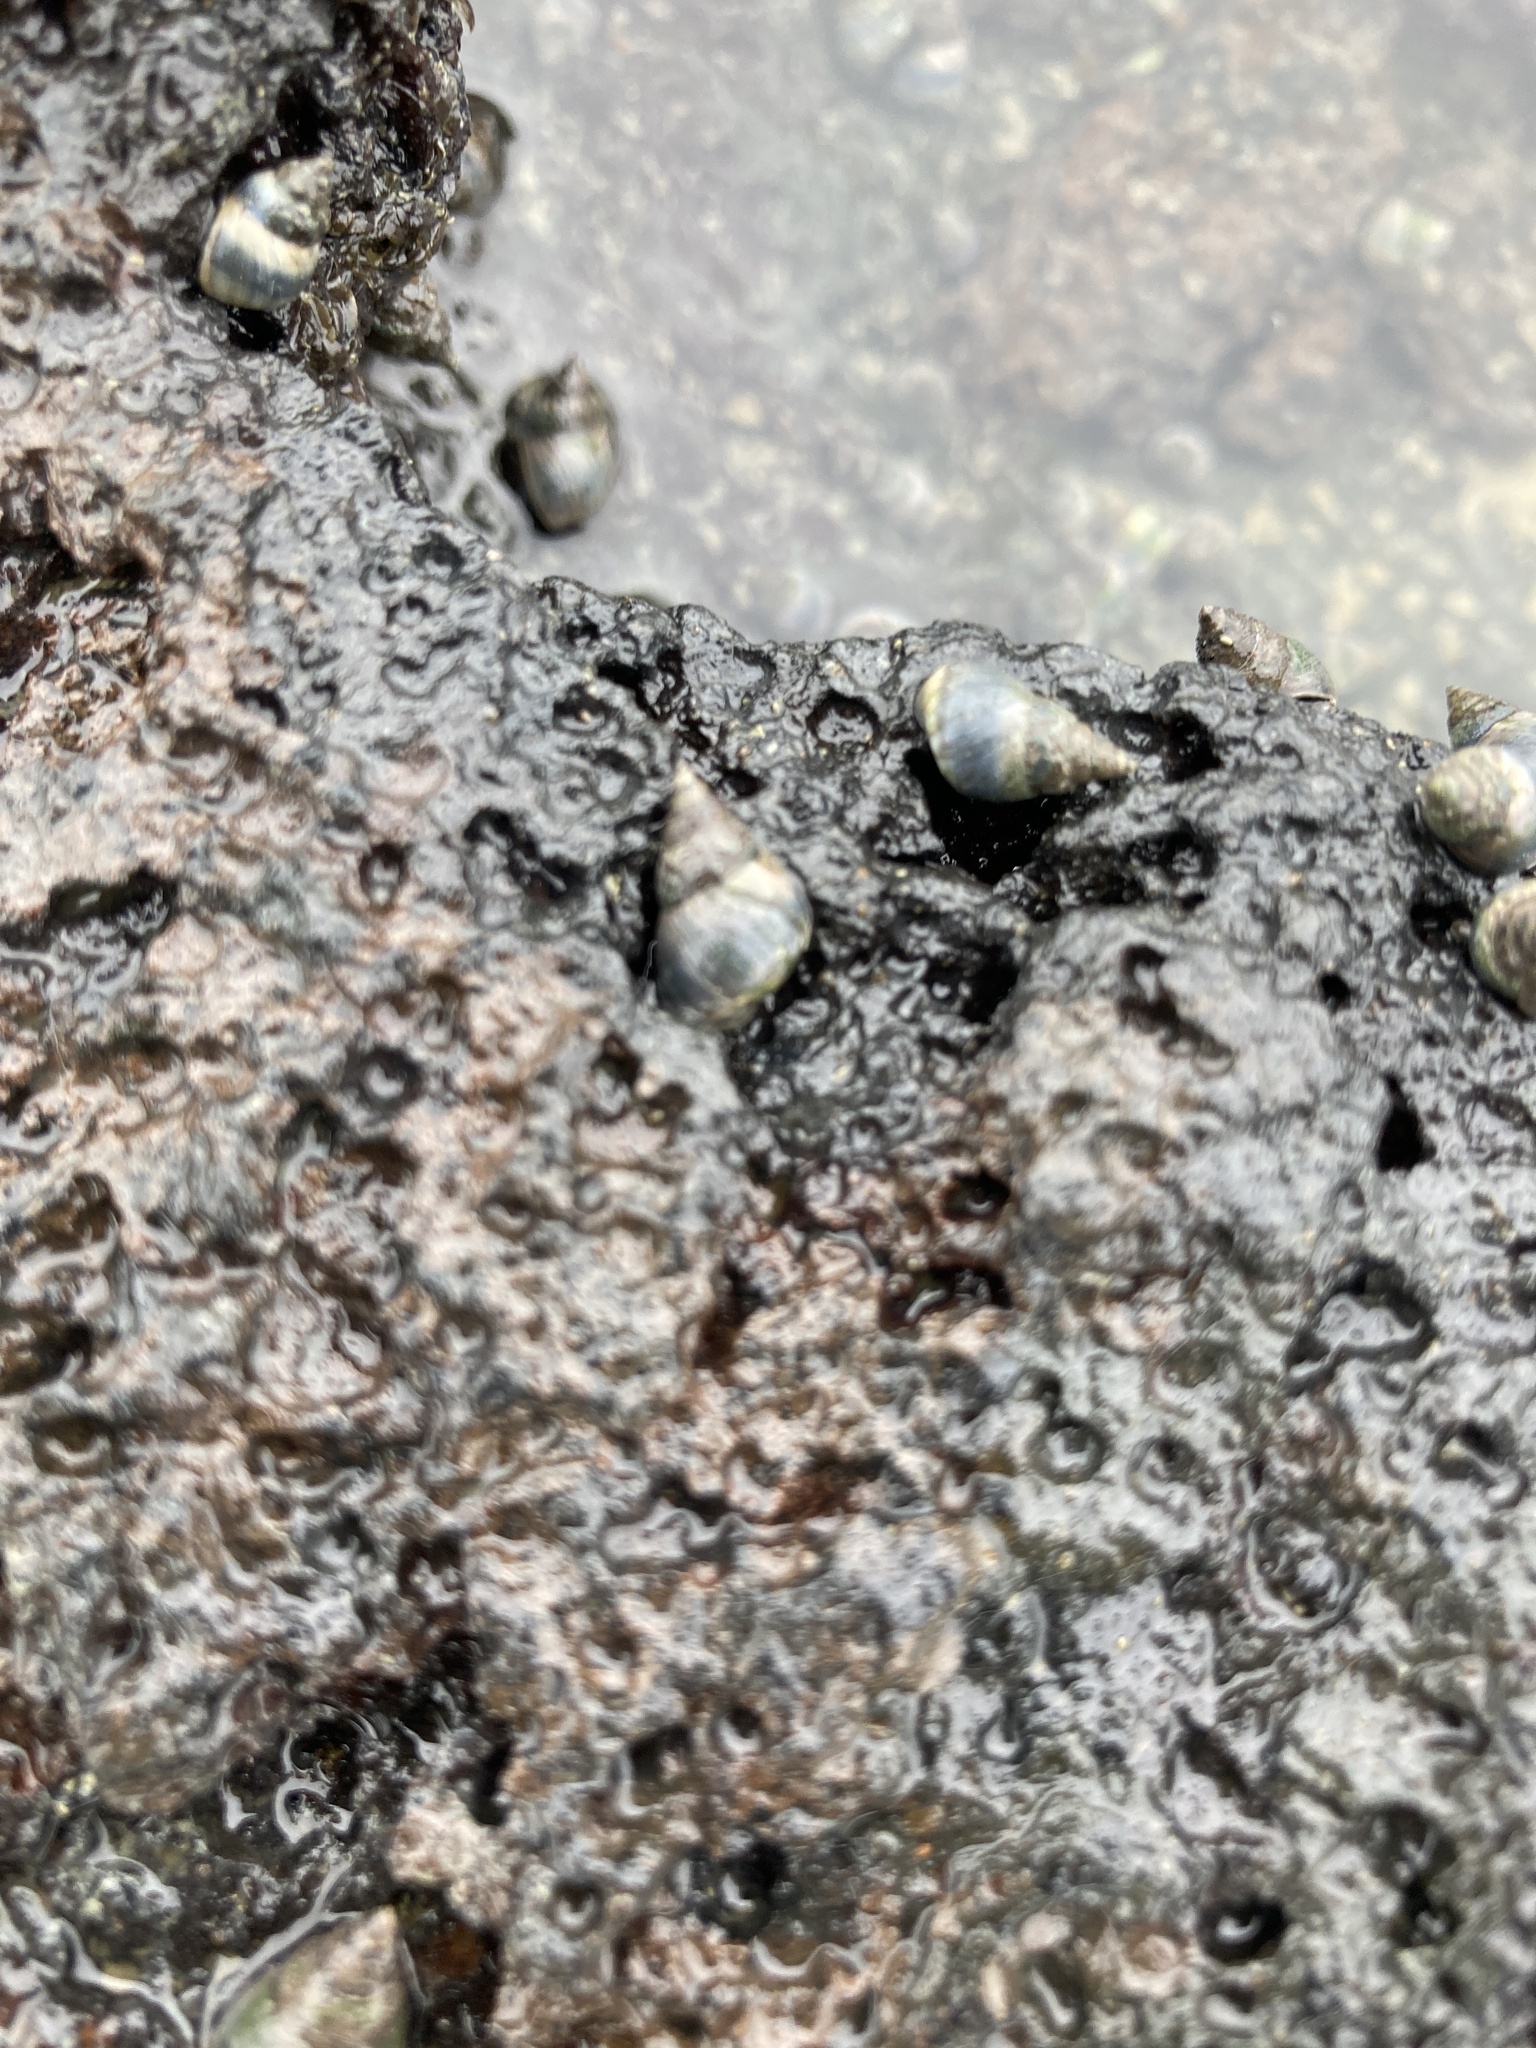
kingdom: Animalia
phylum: Mollusca
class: Gastropoda
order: Littorinimorpha
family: Littorinidae
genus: Austrolittorina
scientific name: Austrolittorina antipodum
